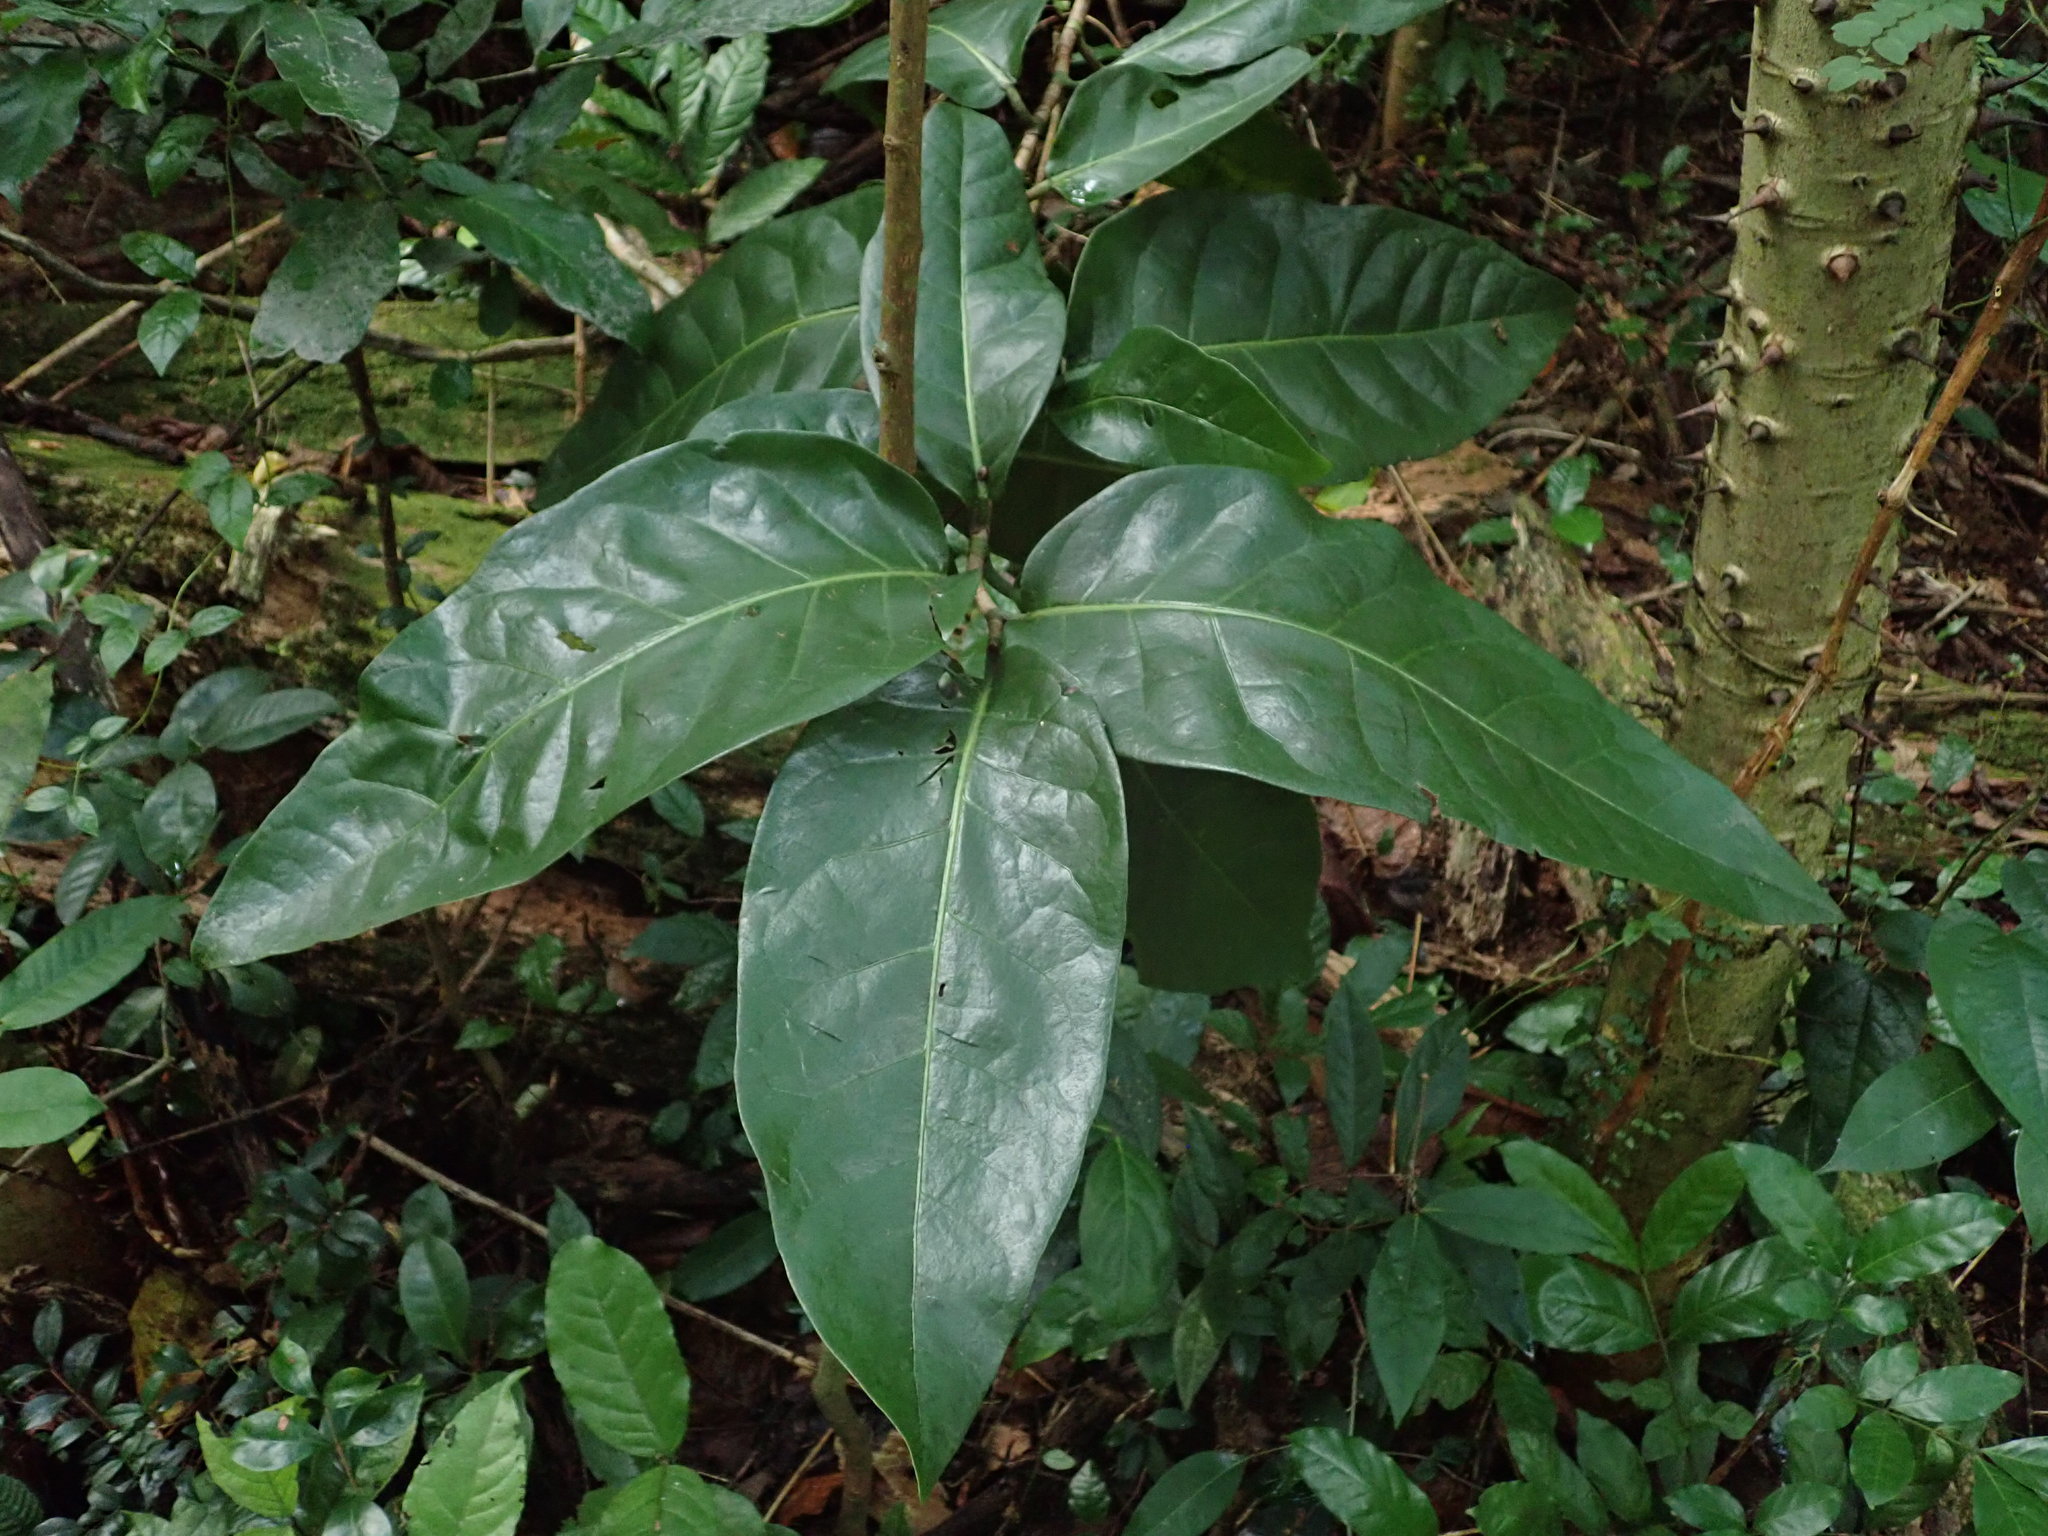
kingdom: Plantae
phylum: Tracheophyta
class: Magnoliopsida
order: Caryophyllales
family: Polygonaceae
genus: Coccoloba
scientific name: Coccoloba diversifolia
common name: Pigeon-plum
